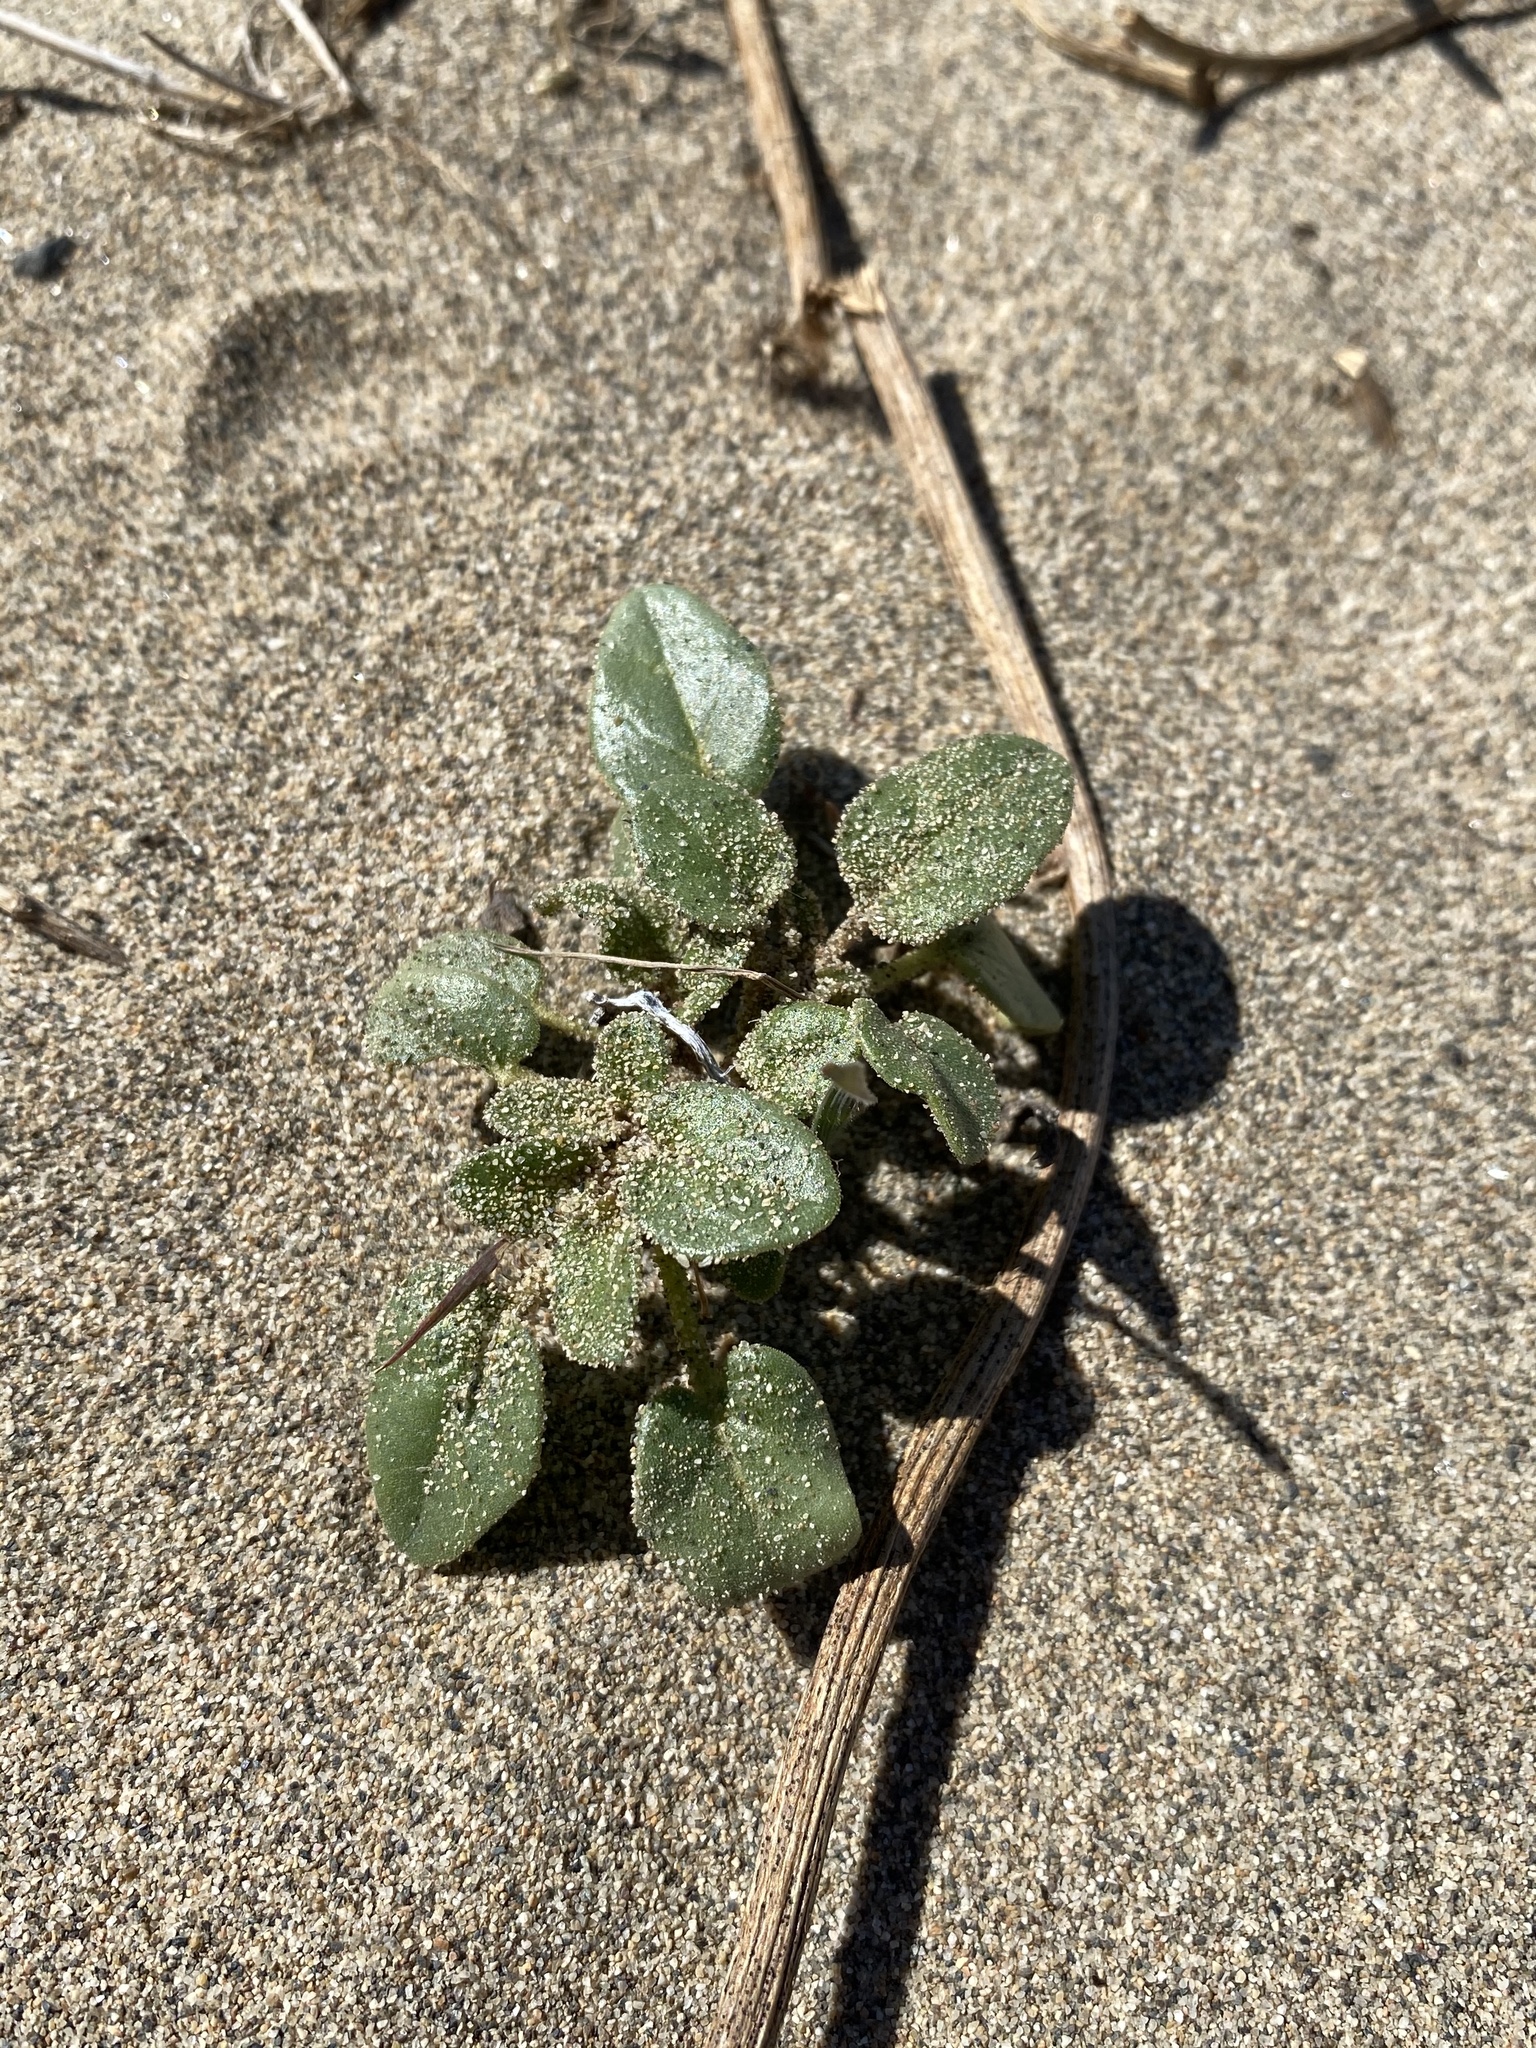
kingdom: Plantae
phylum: Tracheophyta
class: Magnoliopsida
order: Caryophyllales
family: Nyctaginaceae
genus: Abronia
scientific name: Abronia mellifera
